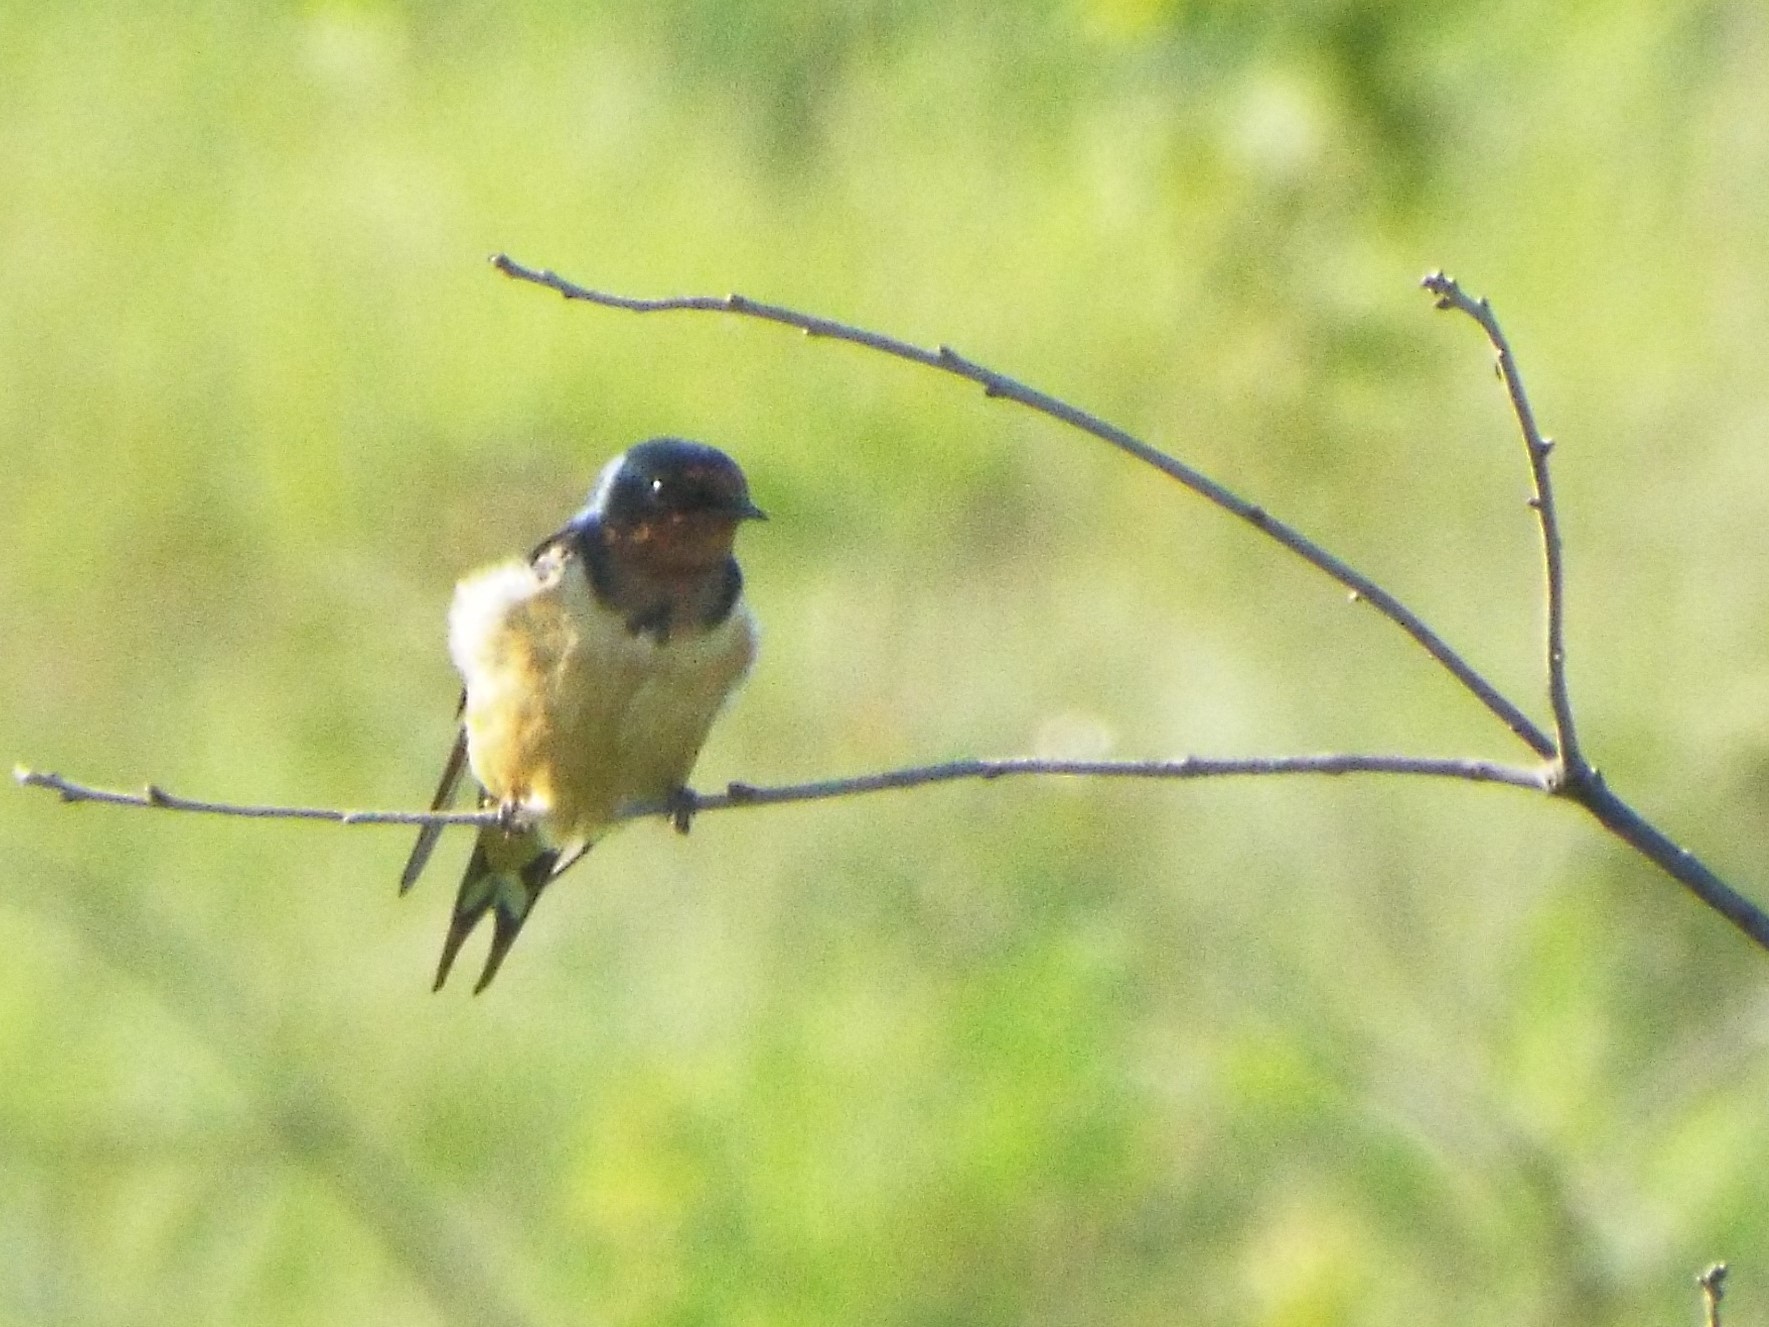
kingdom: Animalia
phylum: Chordata
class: Aves
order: Passeriformes
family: Hirundinidae
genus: Hirundo
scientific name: Hirundo rustica
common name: Barn swallow
